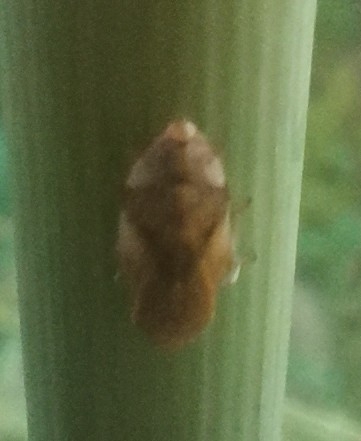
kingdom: Animalia
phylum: Arthropoda
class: Insecta
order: Hemiptera
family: Aphrophoridae
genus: Philaenus
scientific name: Philaenus spumarius
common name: Meadow spittlebug
